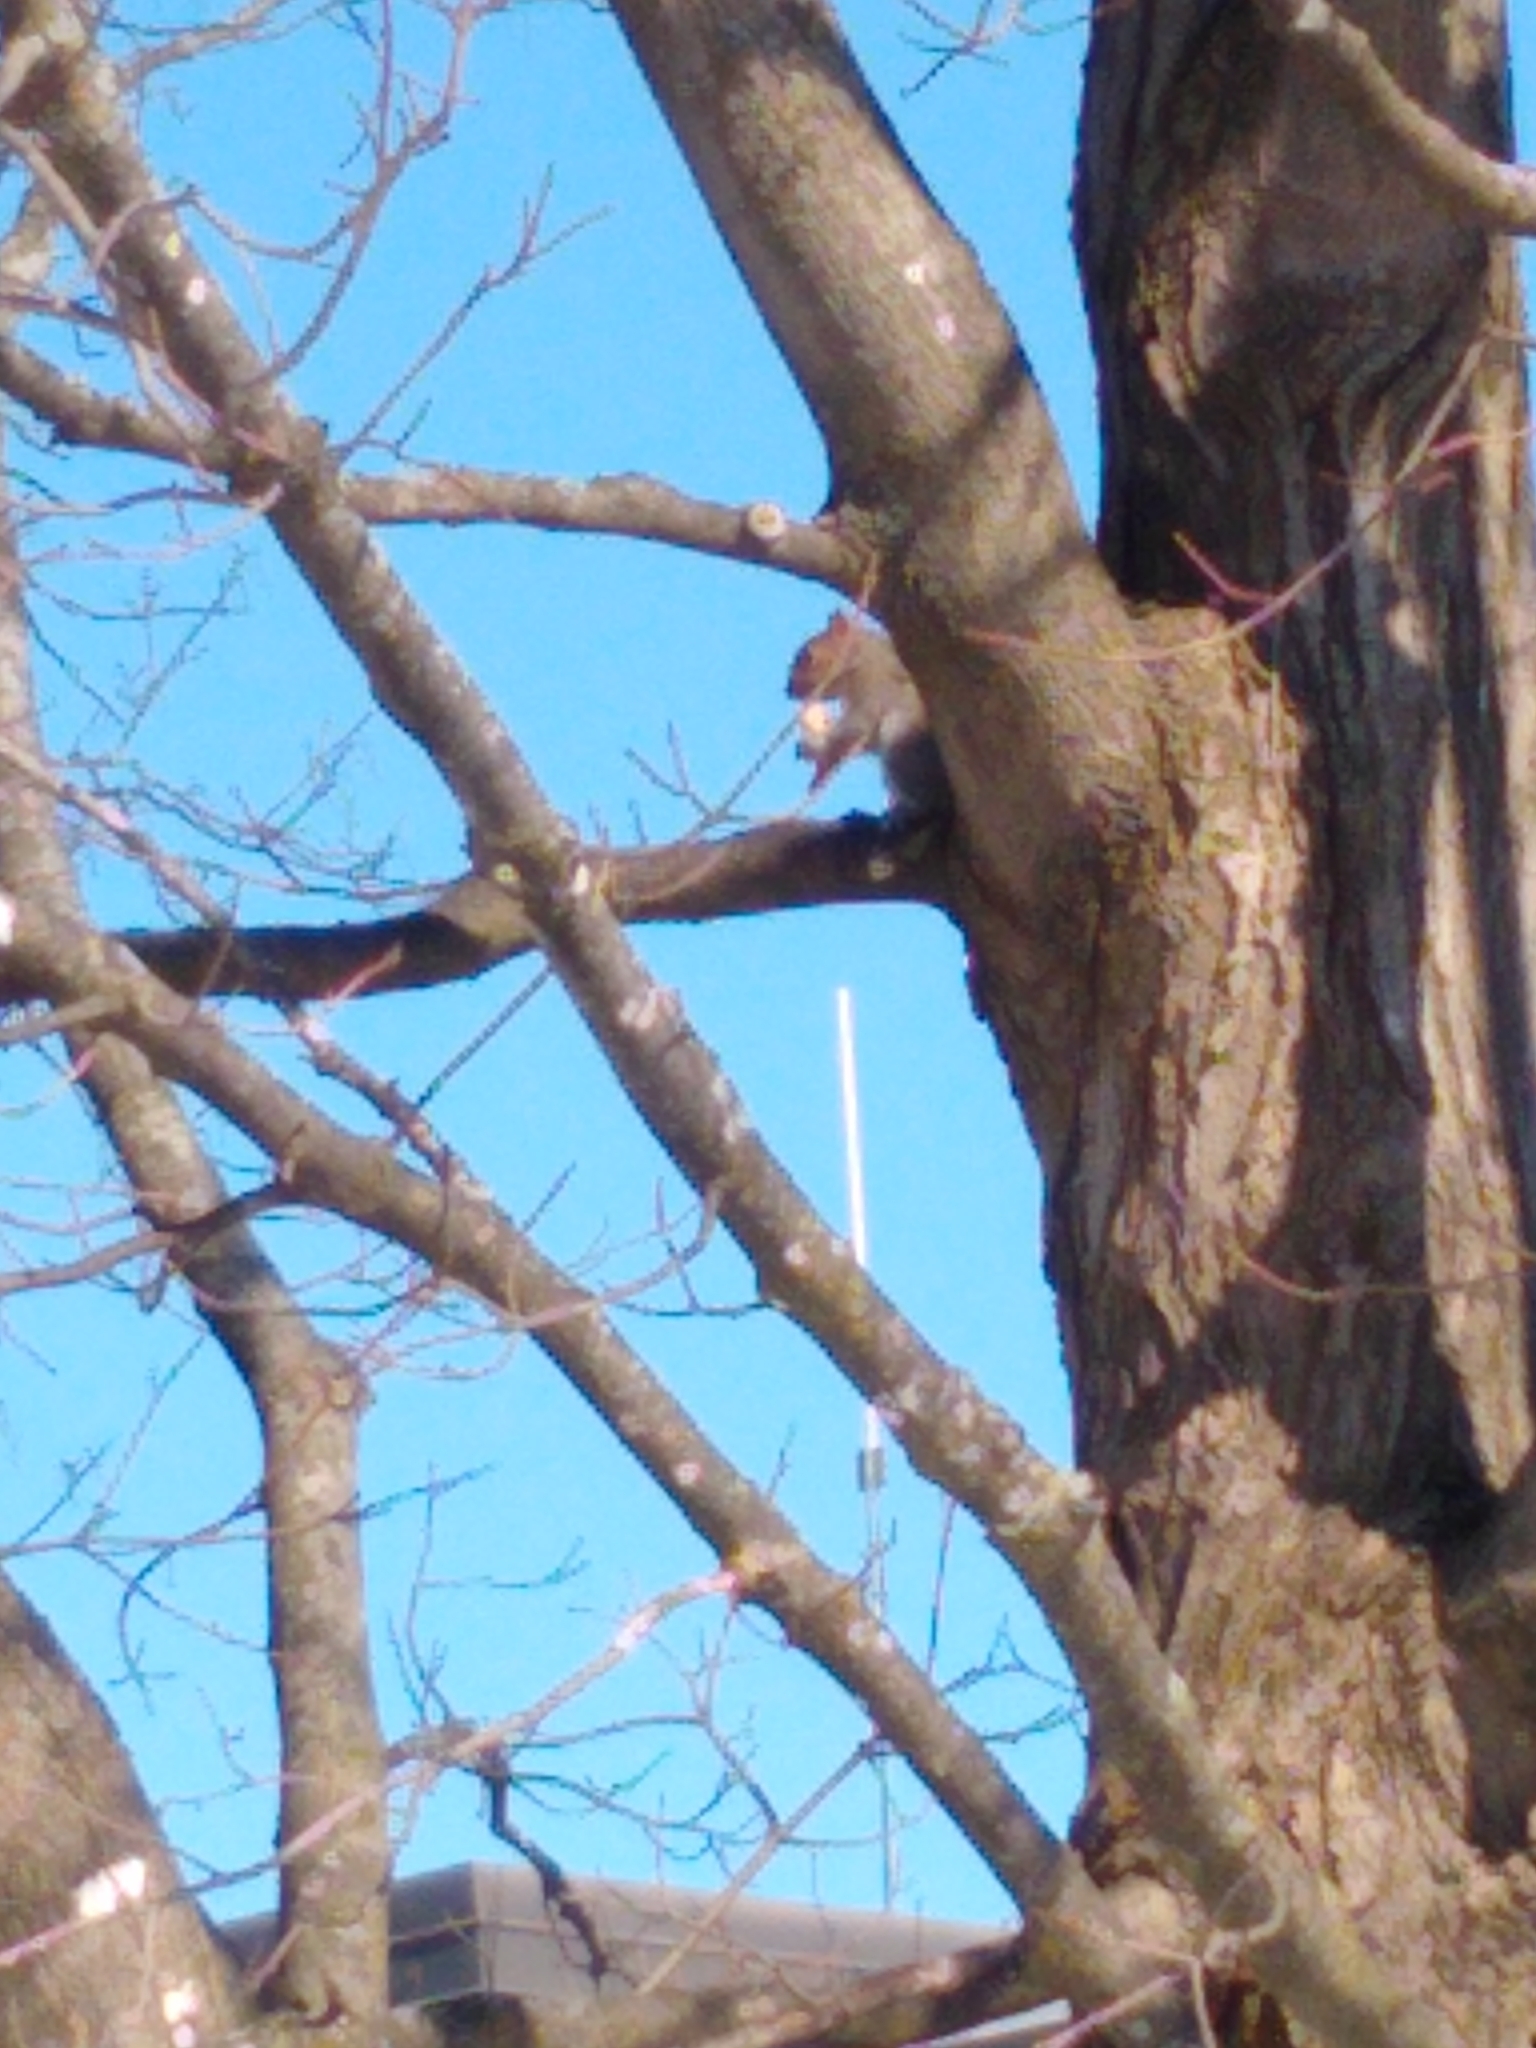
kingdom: Animalia
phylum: Chordata
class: Mammalia
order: Rodentia
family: Sciuridae
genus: Sciurus
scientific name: Sciurus carolinensis
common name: Eastern gray squirrel
